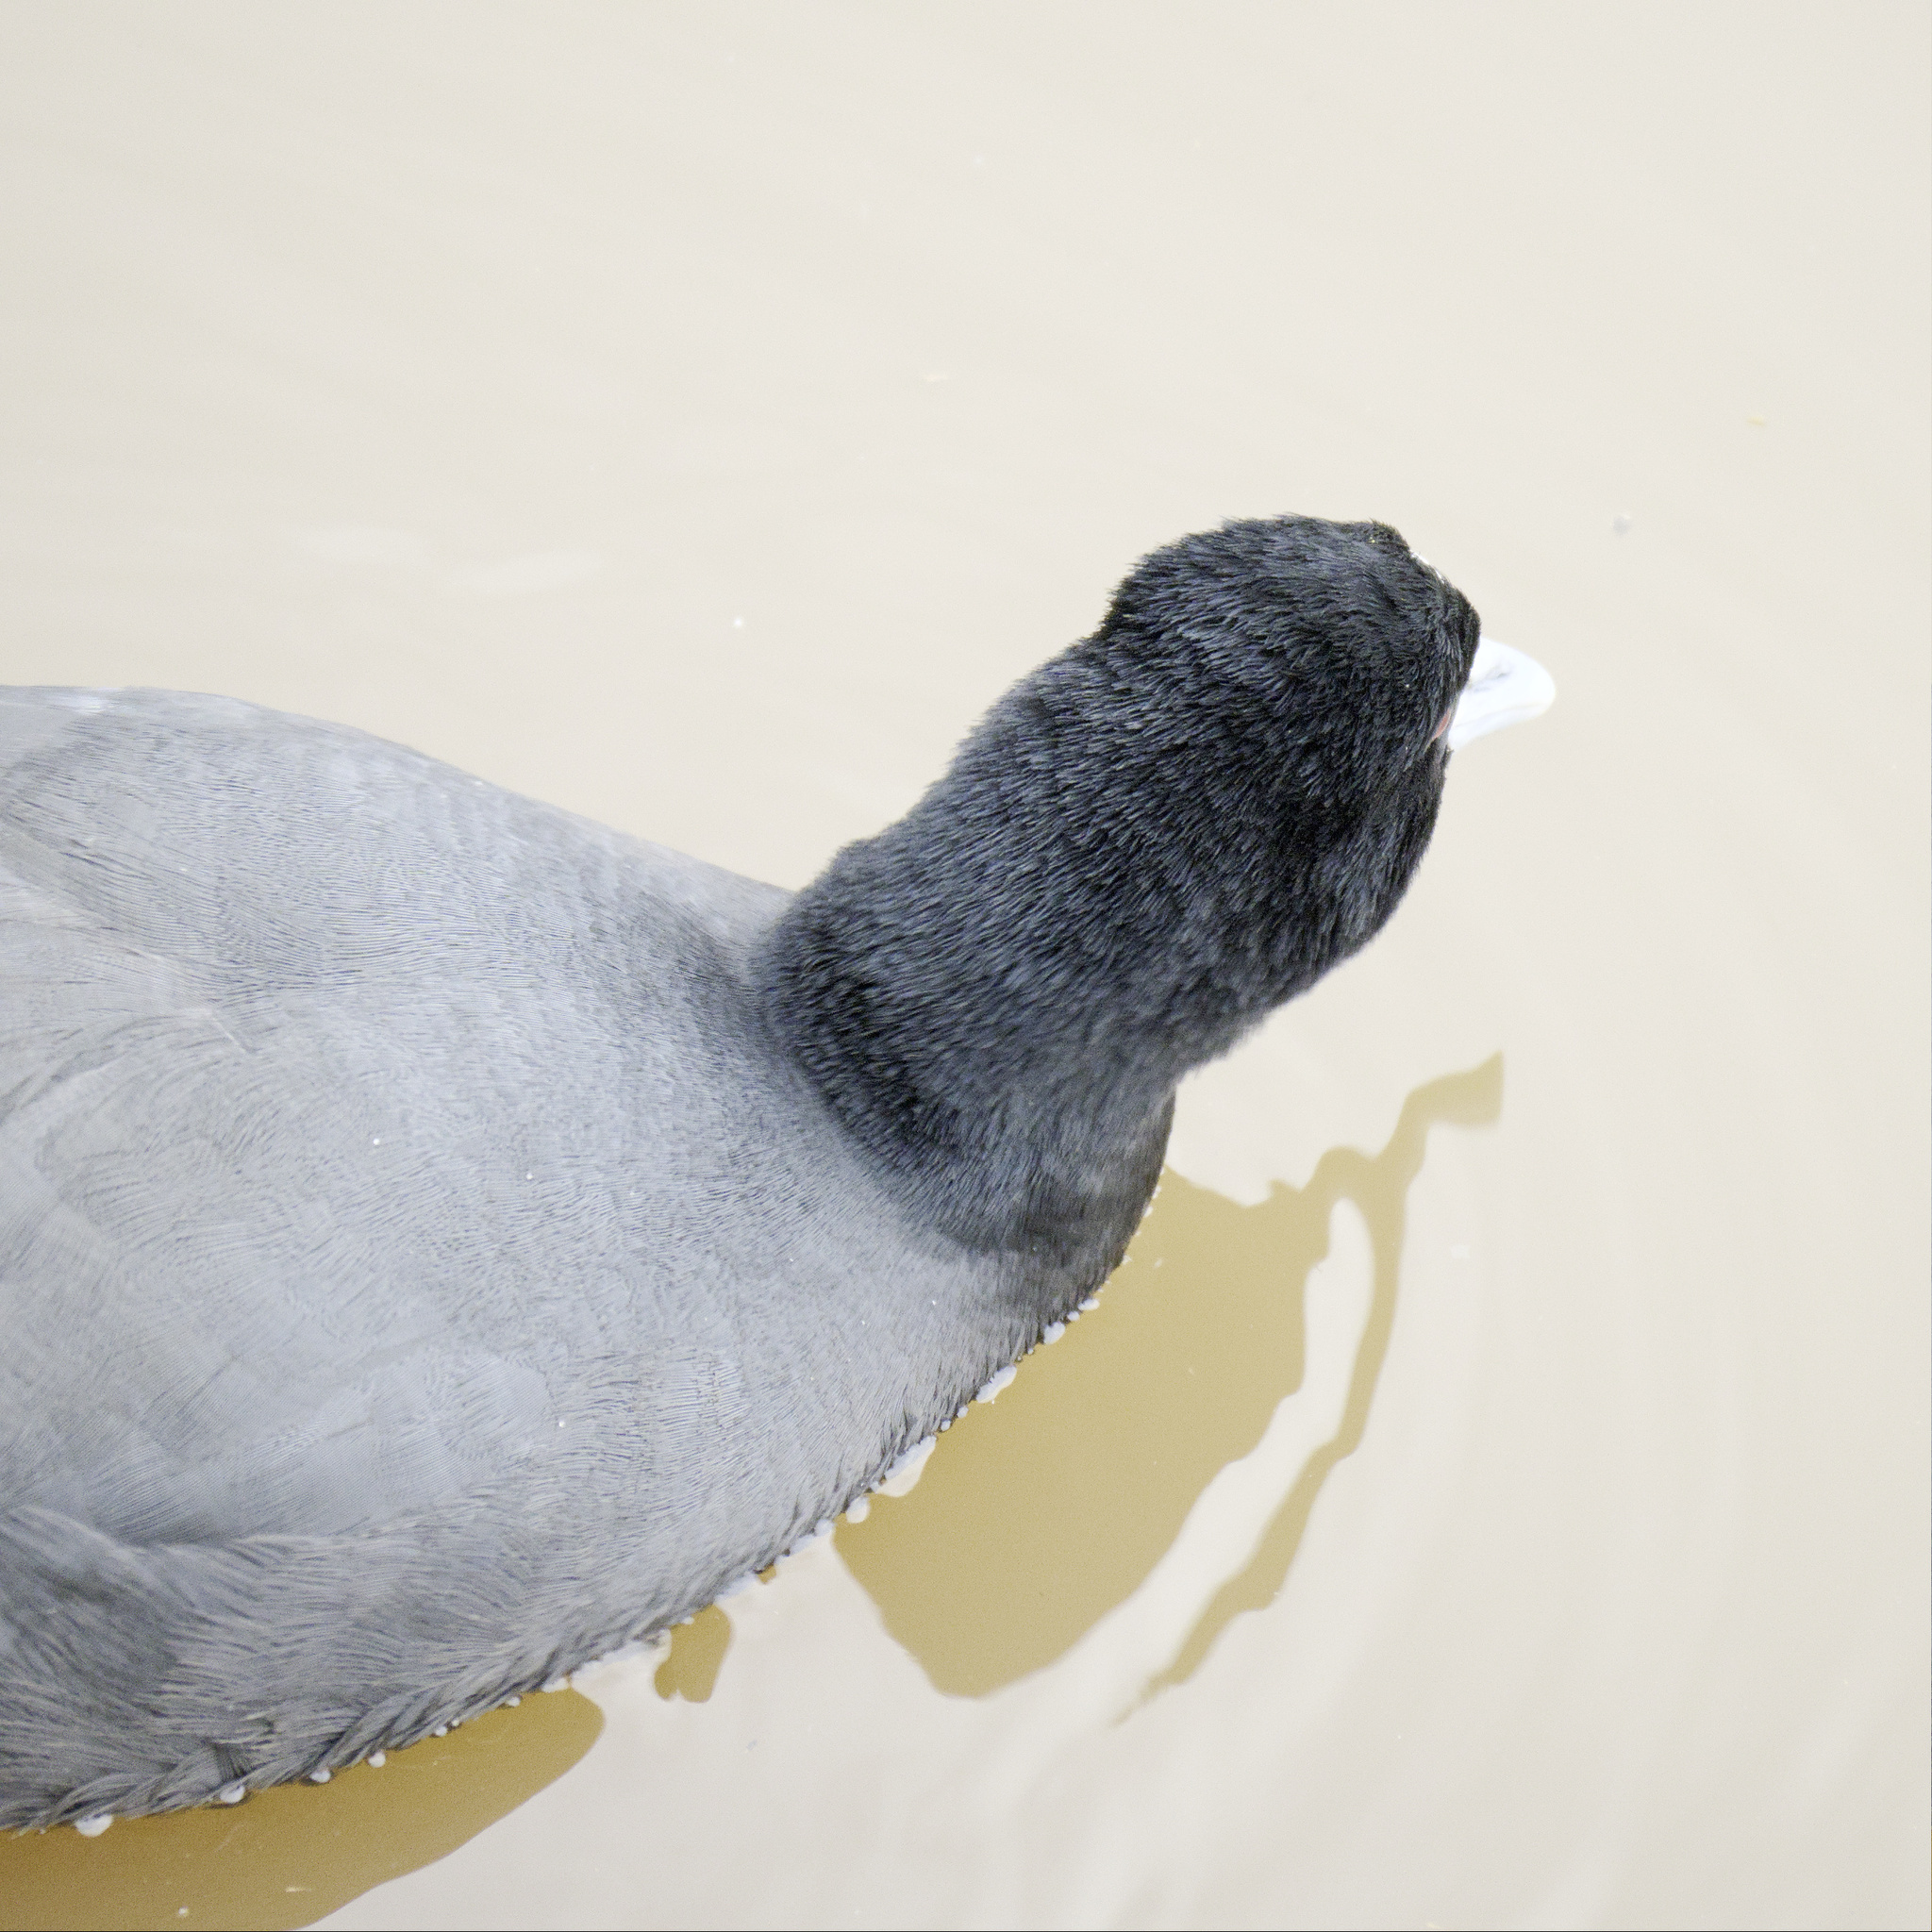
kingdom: Animalia
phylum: Chordata
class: Aves
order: Gruiformes
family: Rallidae
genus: Fulica
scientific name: Fulica atra
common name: Eurasian coot
